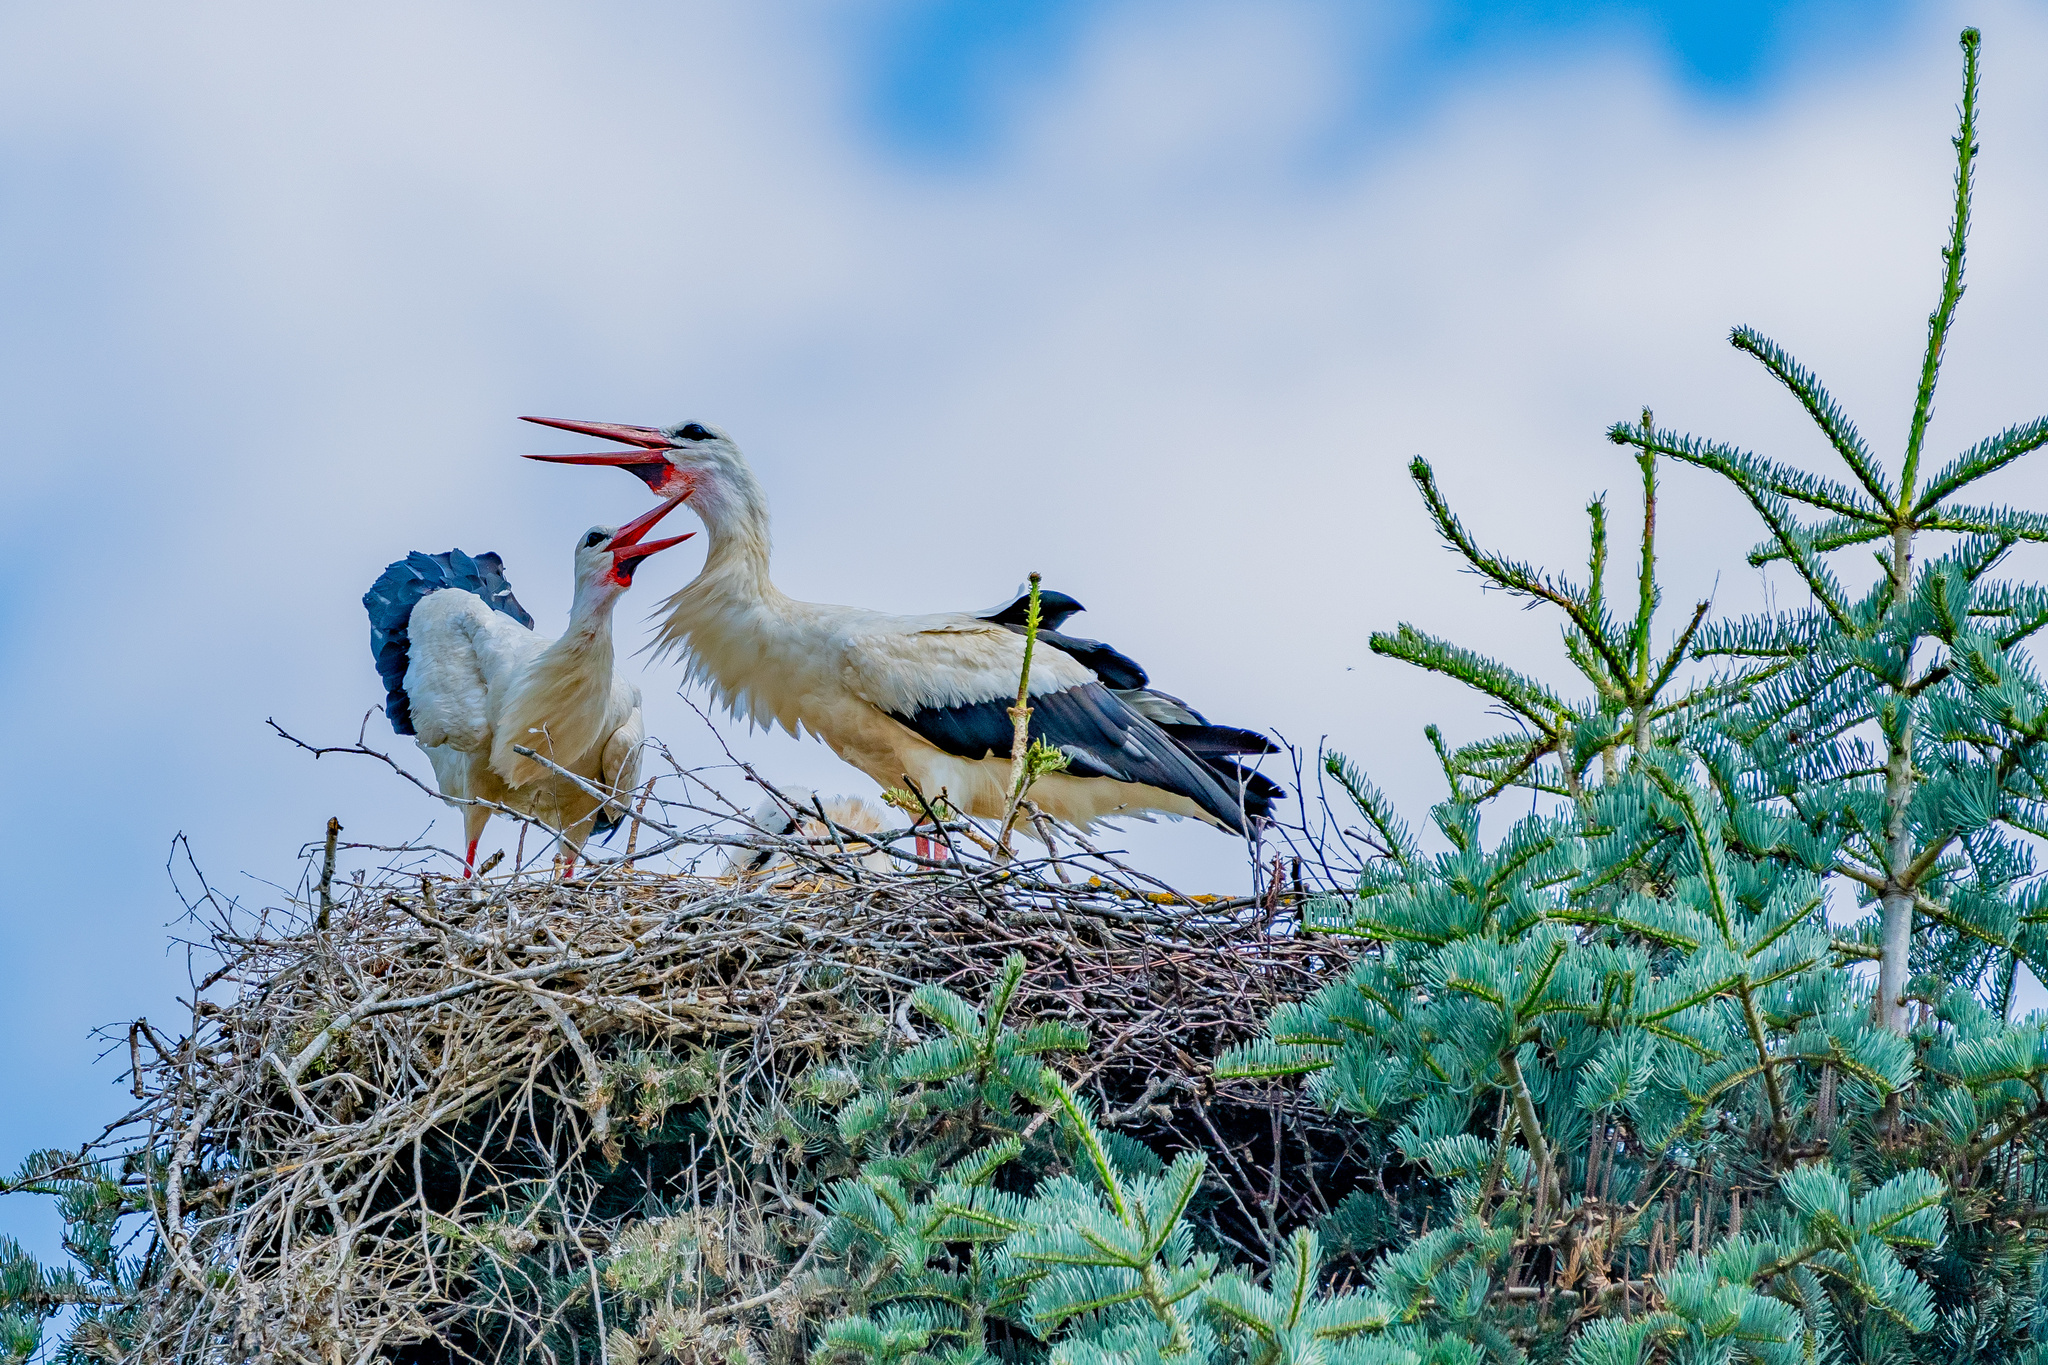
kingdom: Animalia
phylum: Chordata
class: Aves
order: Ciconiiformes
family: Ciconiidae
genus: Ciconia
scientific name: Ciconia ciconia
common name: White stork
